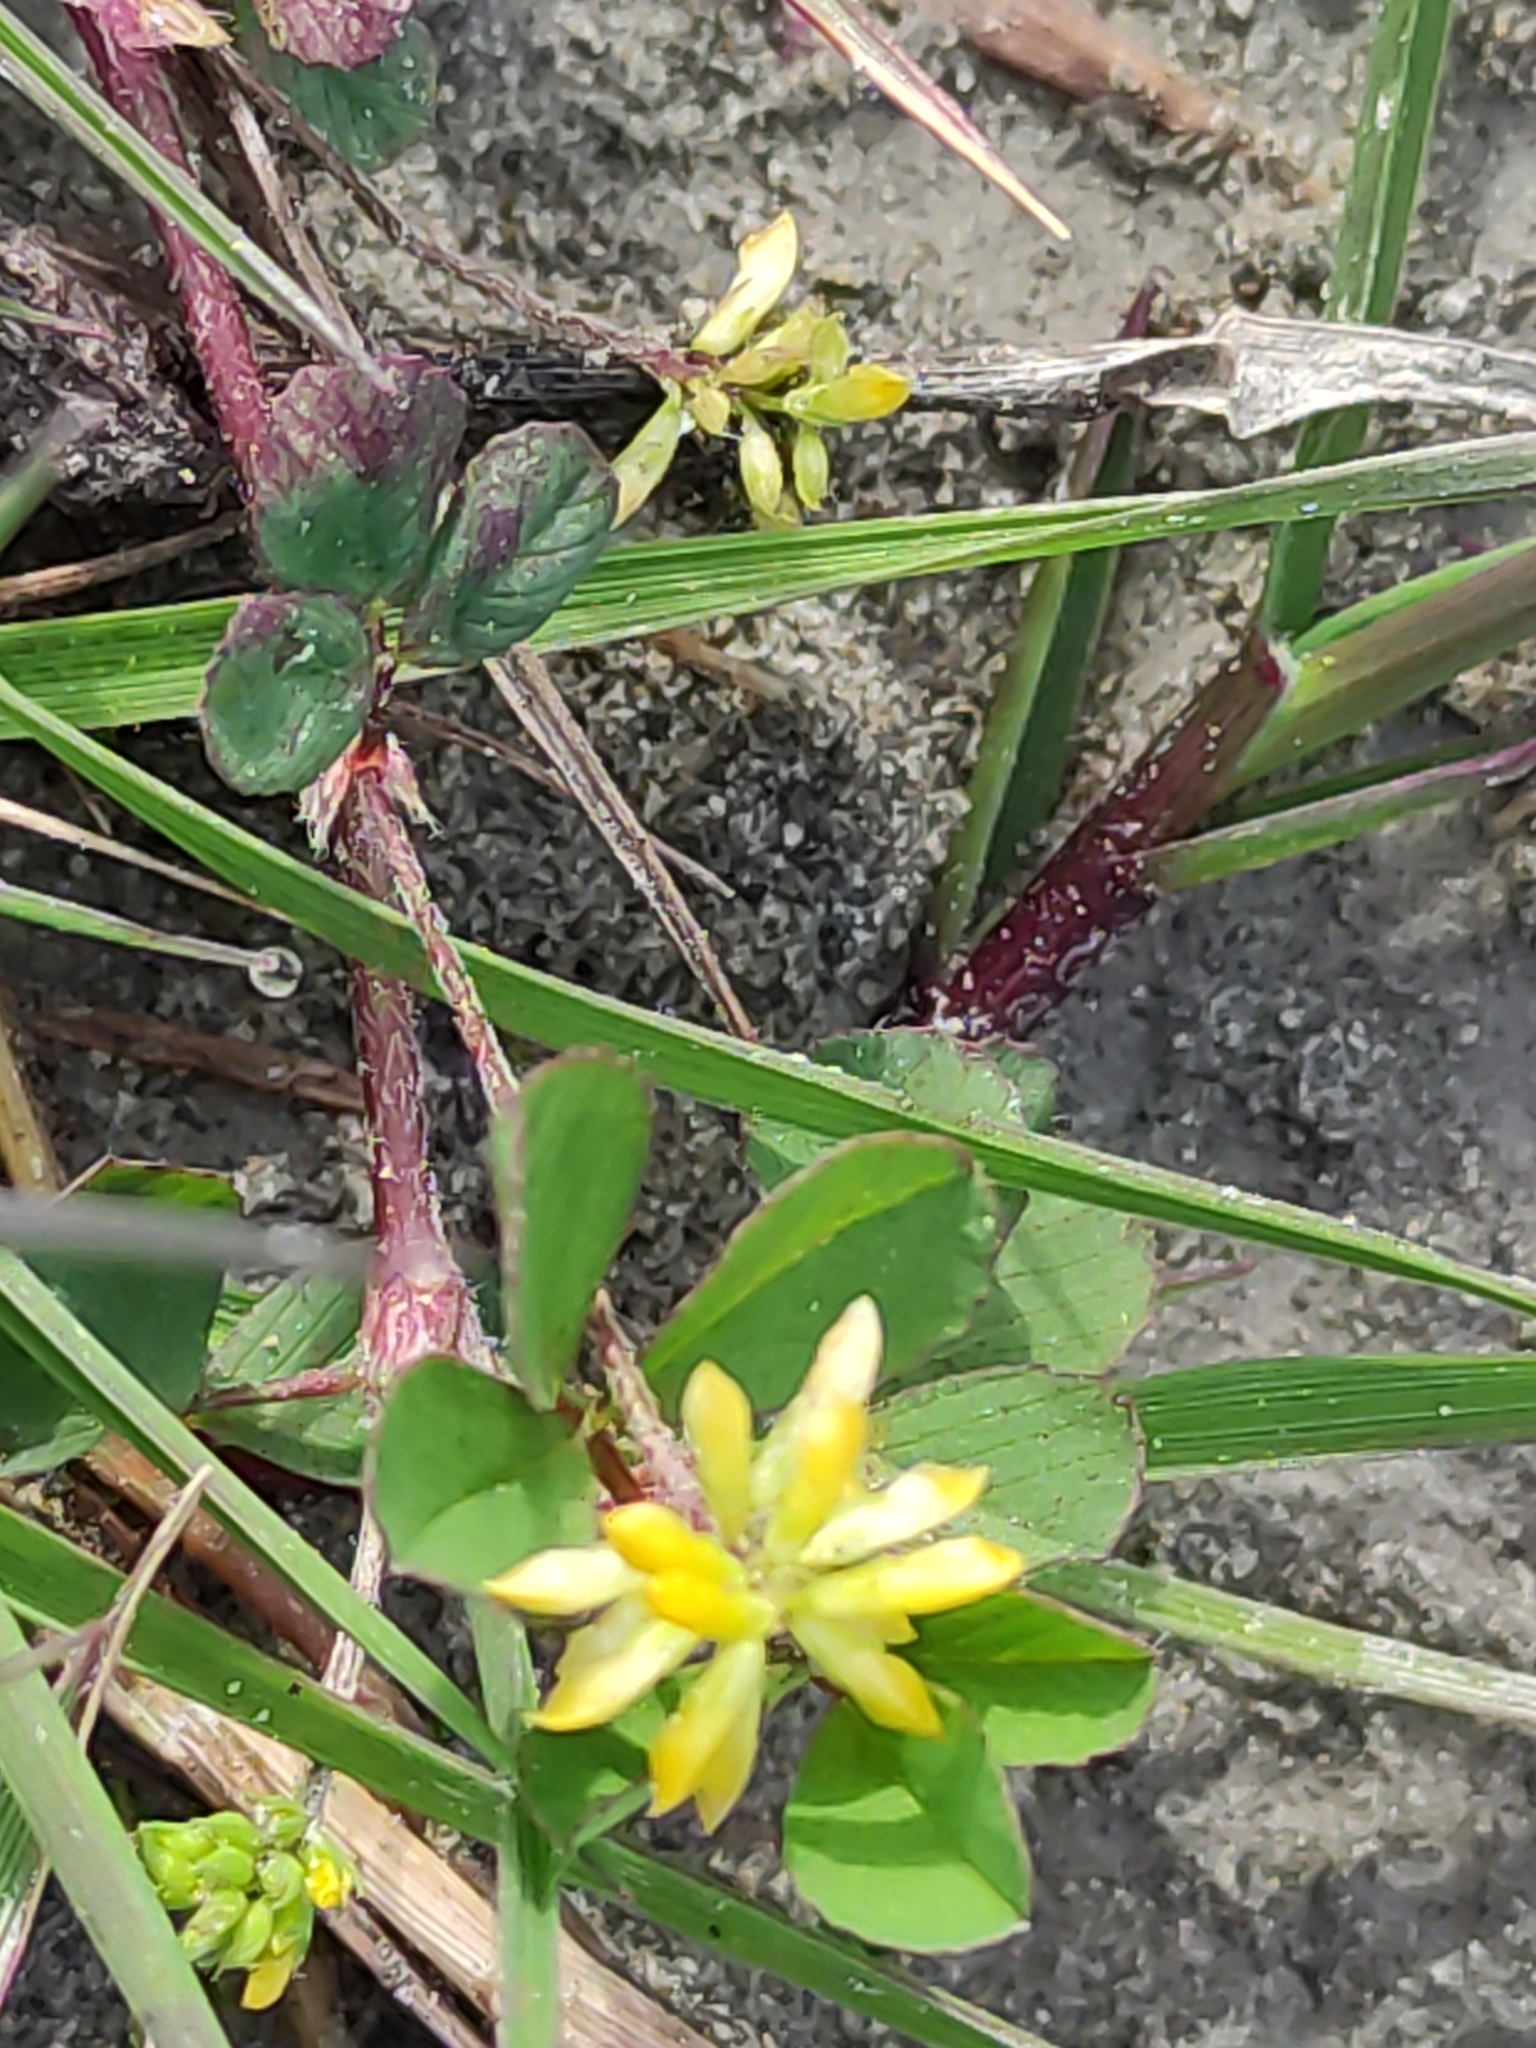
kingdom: Plantae
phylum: Tracheophyta
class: Magnoliopsida
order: Fabales
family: Fabaceae
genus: Trifolium
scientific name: Trifolium dubium
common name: Suckling clover
